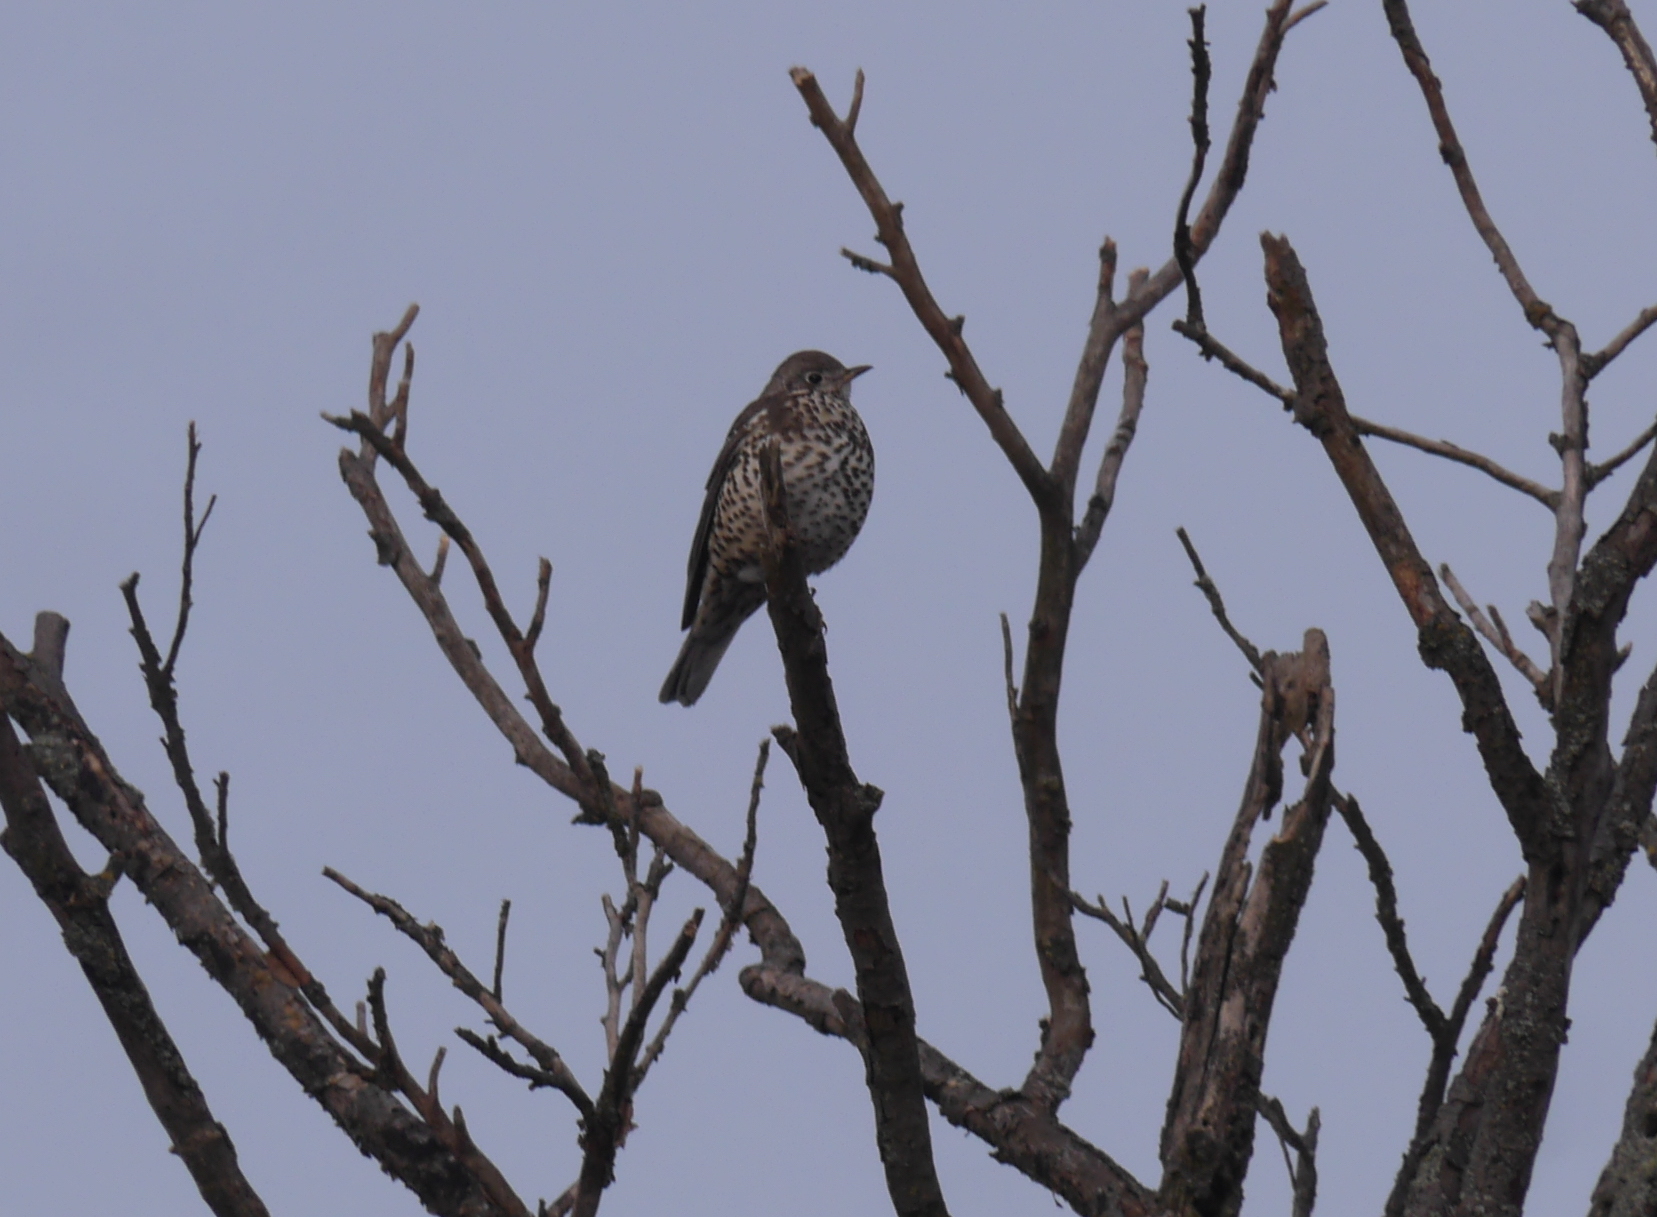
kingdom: Animalia
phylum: Chordata
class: Aves
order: Passeriformes
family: Turdidae
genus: Turdus
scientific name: Turdus viscivorus
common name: Mistle thrush
